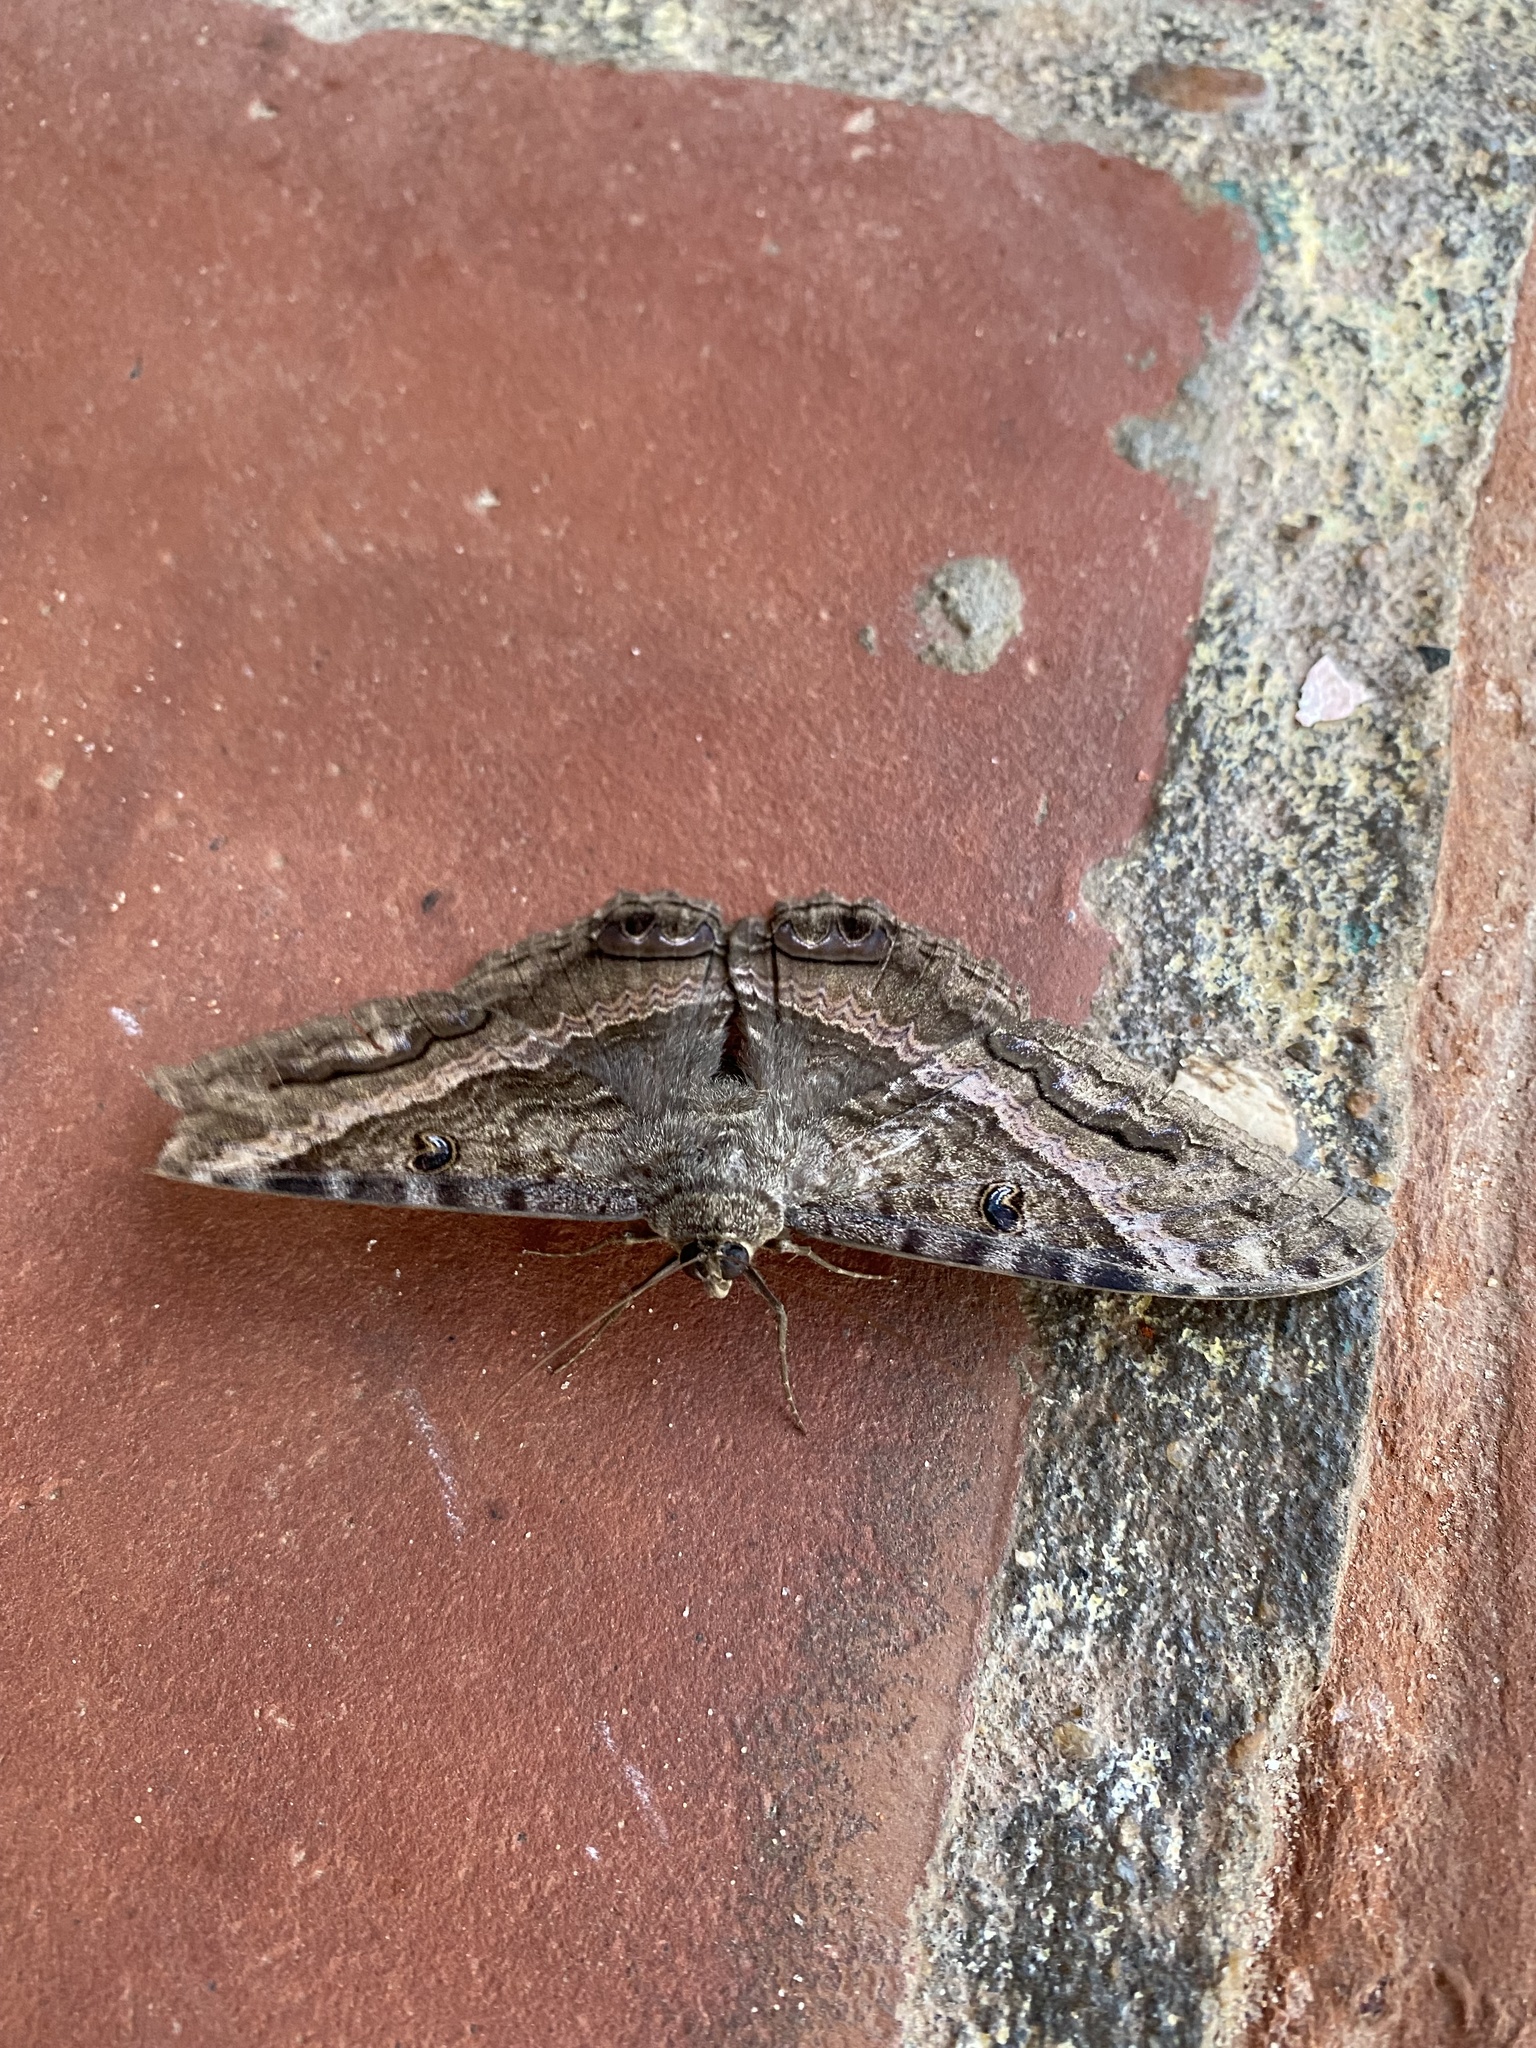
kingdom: Animalia
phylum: Arthropoda
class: Insecta
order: Lepidoptera
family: Erebidae
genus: Ascalapha
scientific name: Ascalapha odorata
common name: Black witch
